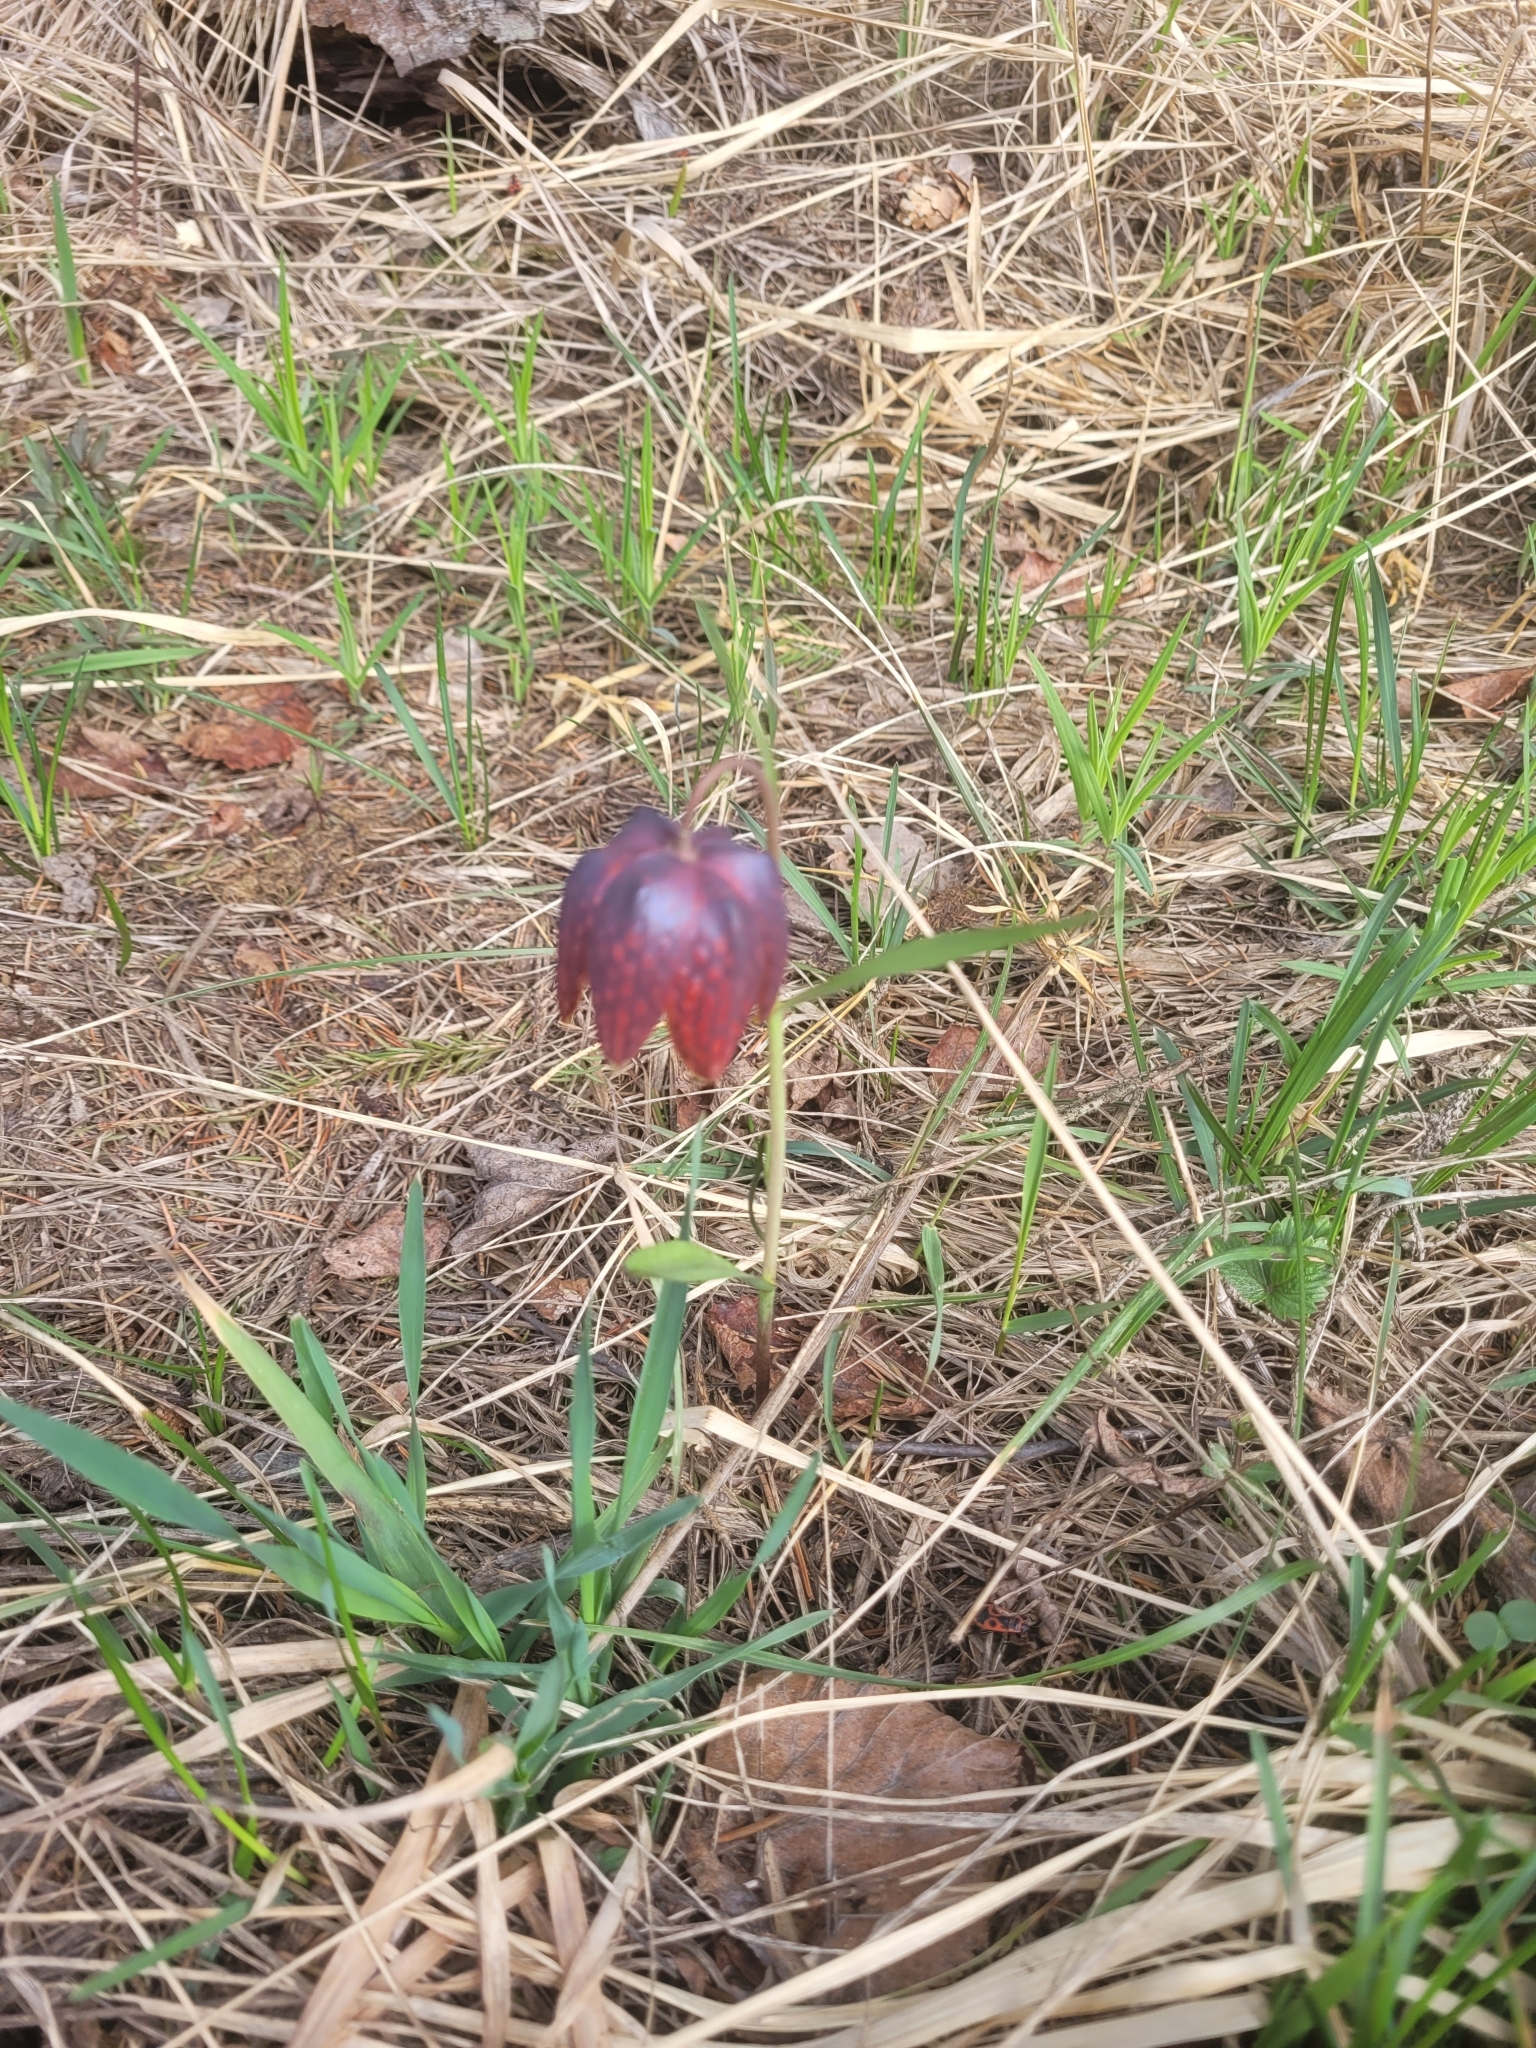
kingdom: Plantae
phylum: Tracheophyta
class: Liliopsida
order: Liliales
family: Liliaceae
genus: Fritillaria
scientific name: Fritillaria meleagris
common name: Fritillary
